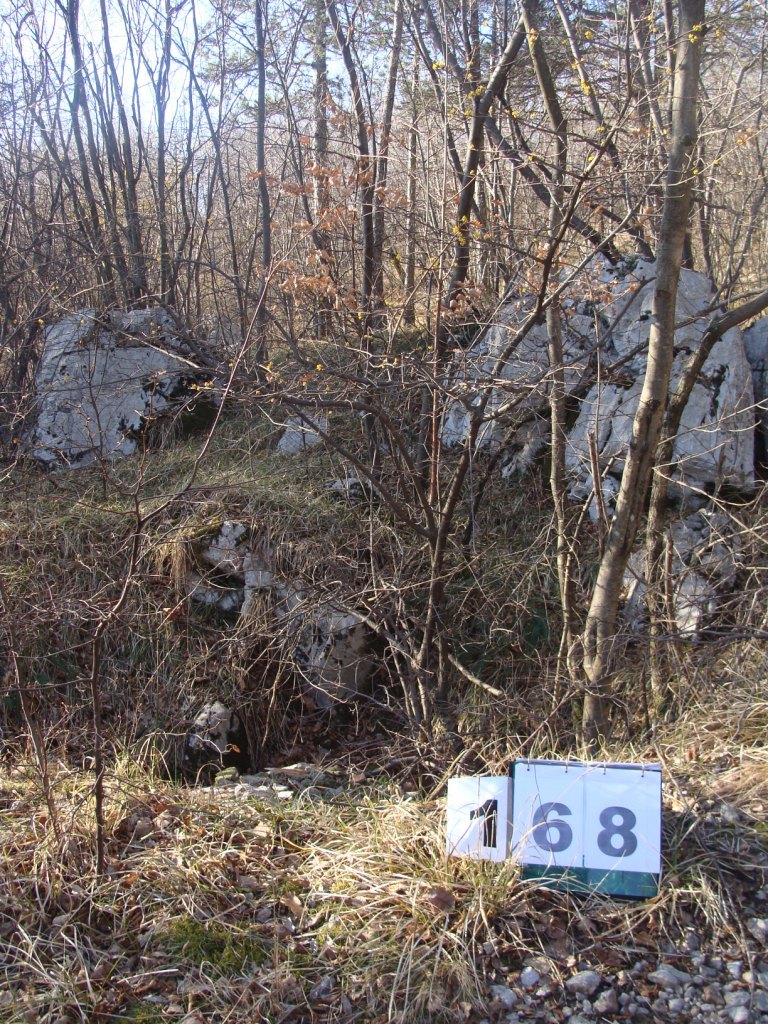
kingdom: Plantae
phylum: Tracheophyta
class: Magnoliopsida
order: Cornales
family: Cornaceae
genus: Cornus
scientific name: Cornus mas
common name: Cornelian-cherry
